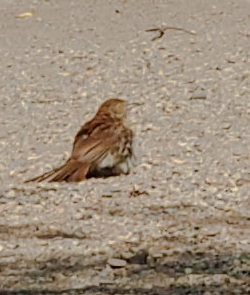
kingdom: Animalia
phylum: Chordata
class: Aves
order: Passeriformes
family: Mimidae
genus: Toxostoma
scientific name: Toxostoma rufum
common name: Brown thrasher
